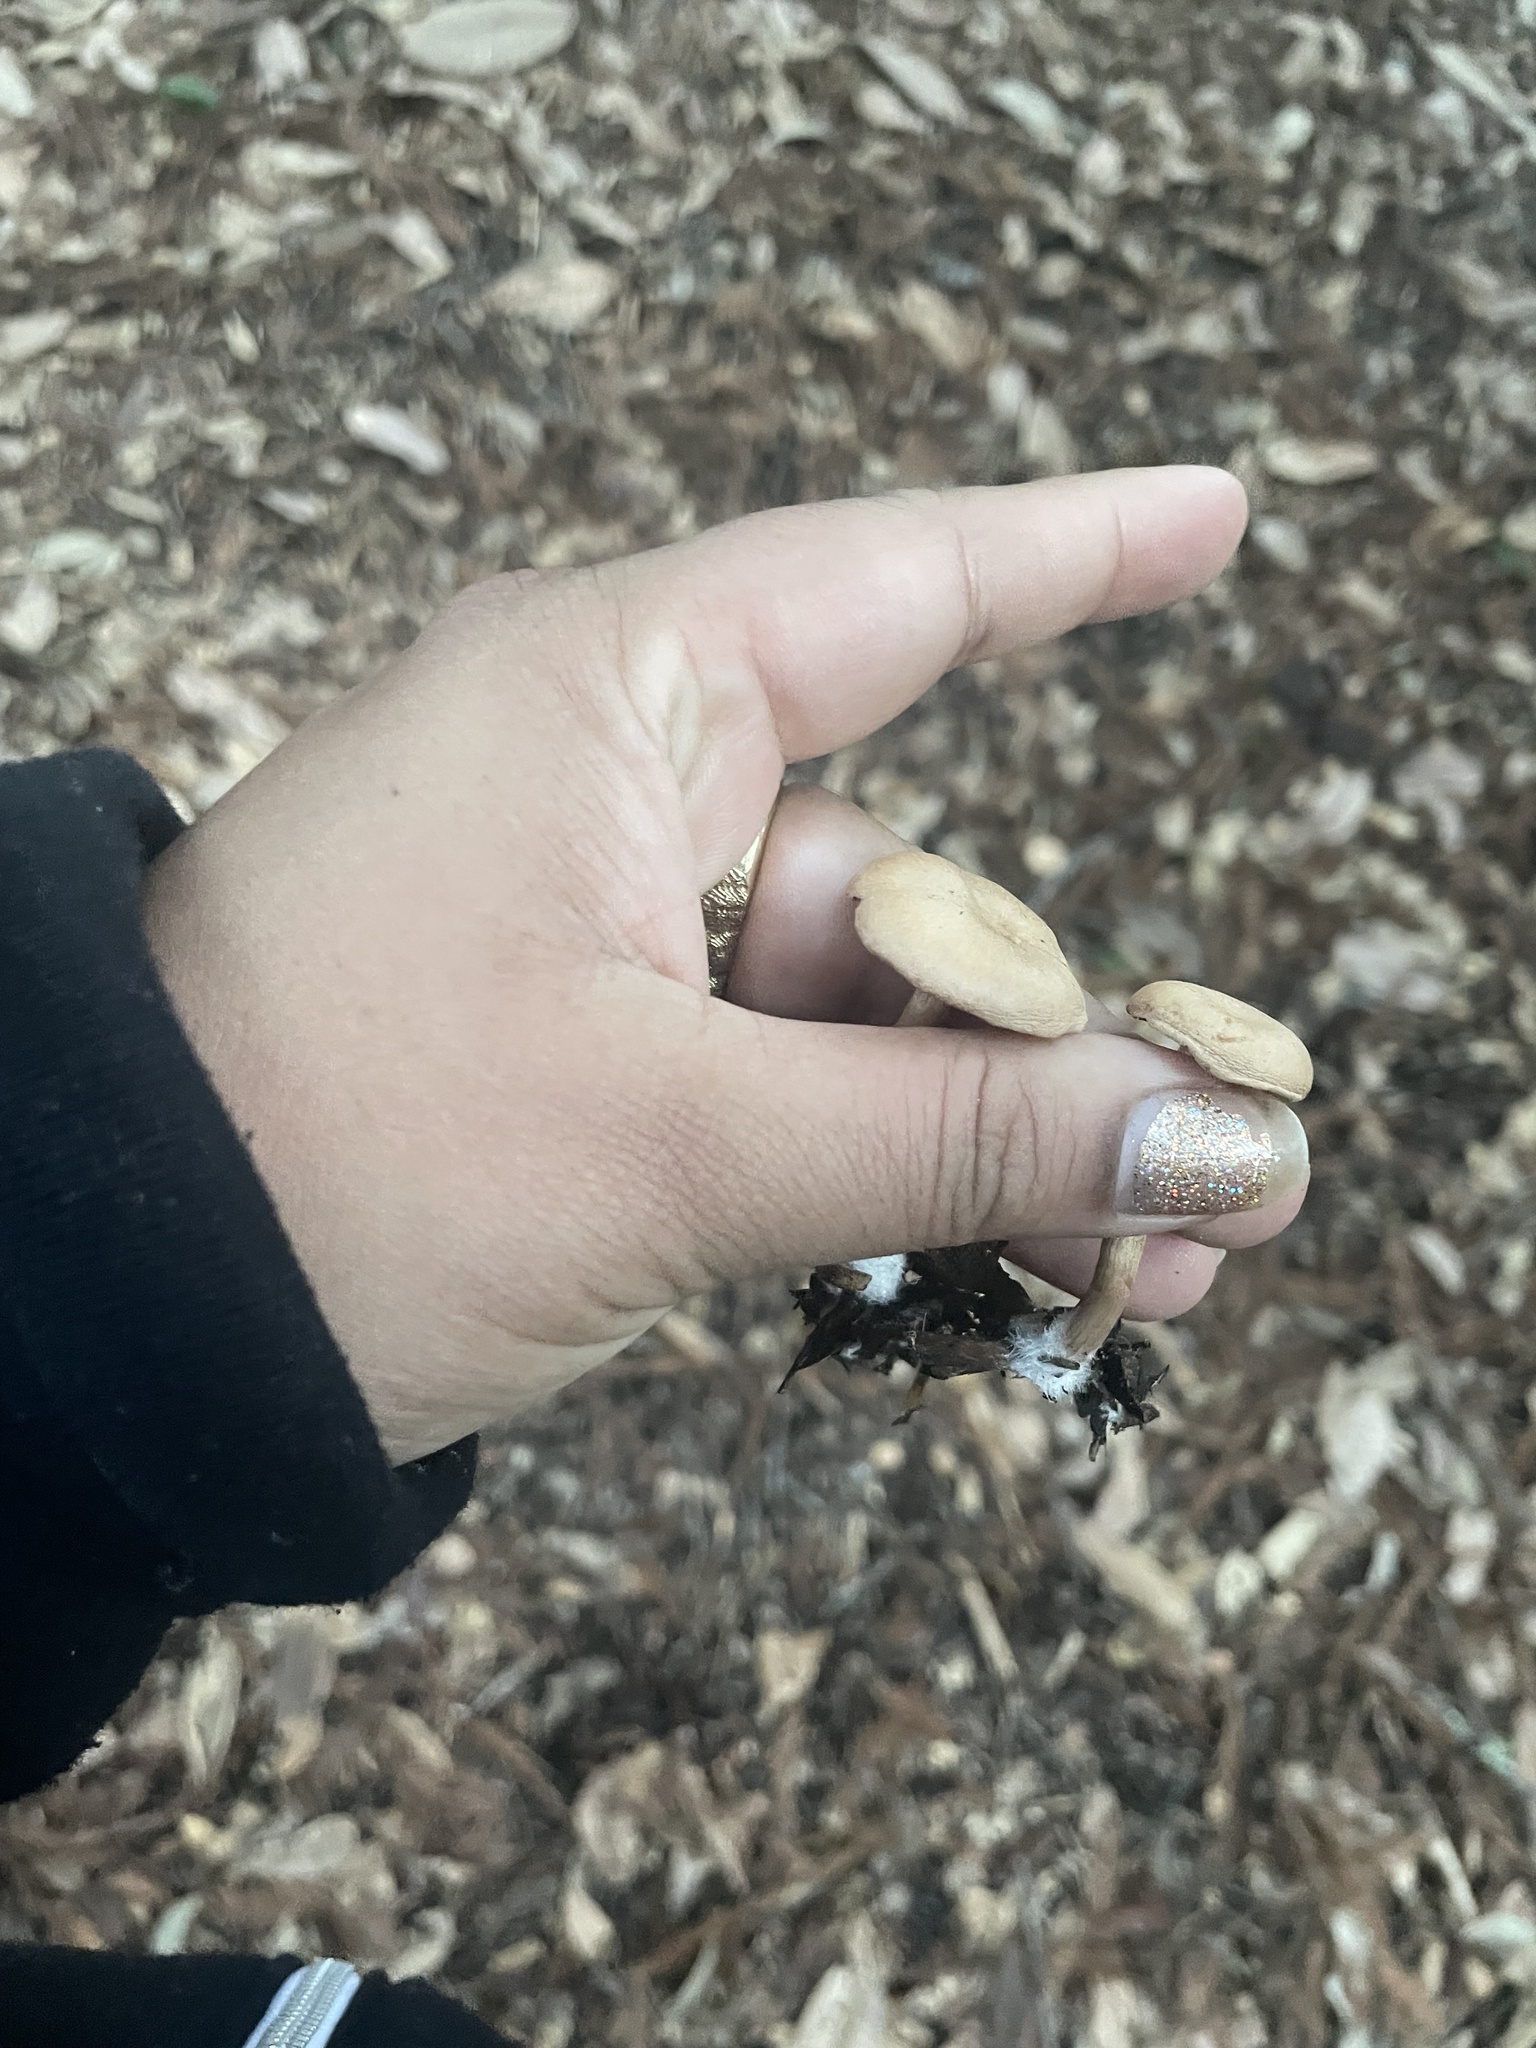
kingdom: Fungi
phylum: Basidiomycota
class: Agaricomycetes
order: Agaricales
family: Tubariaceae
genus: Tubaria
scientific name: Tubaria furfuracea
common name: Scurfy twiglet
